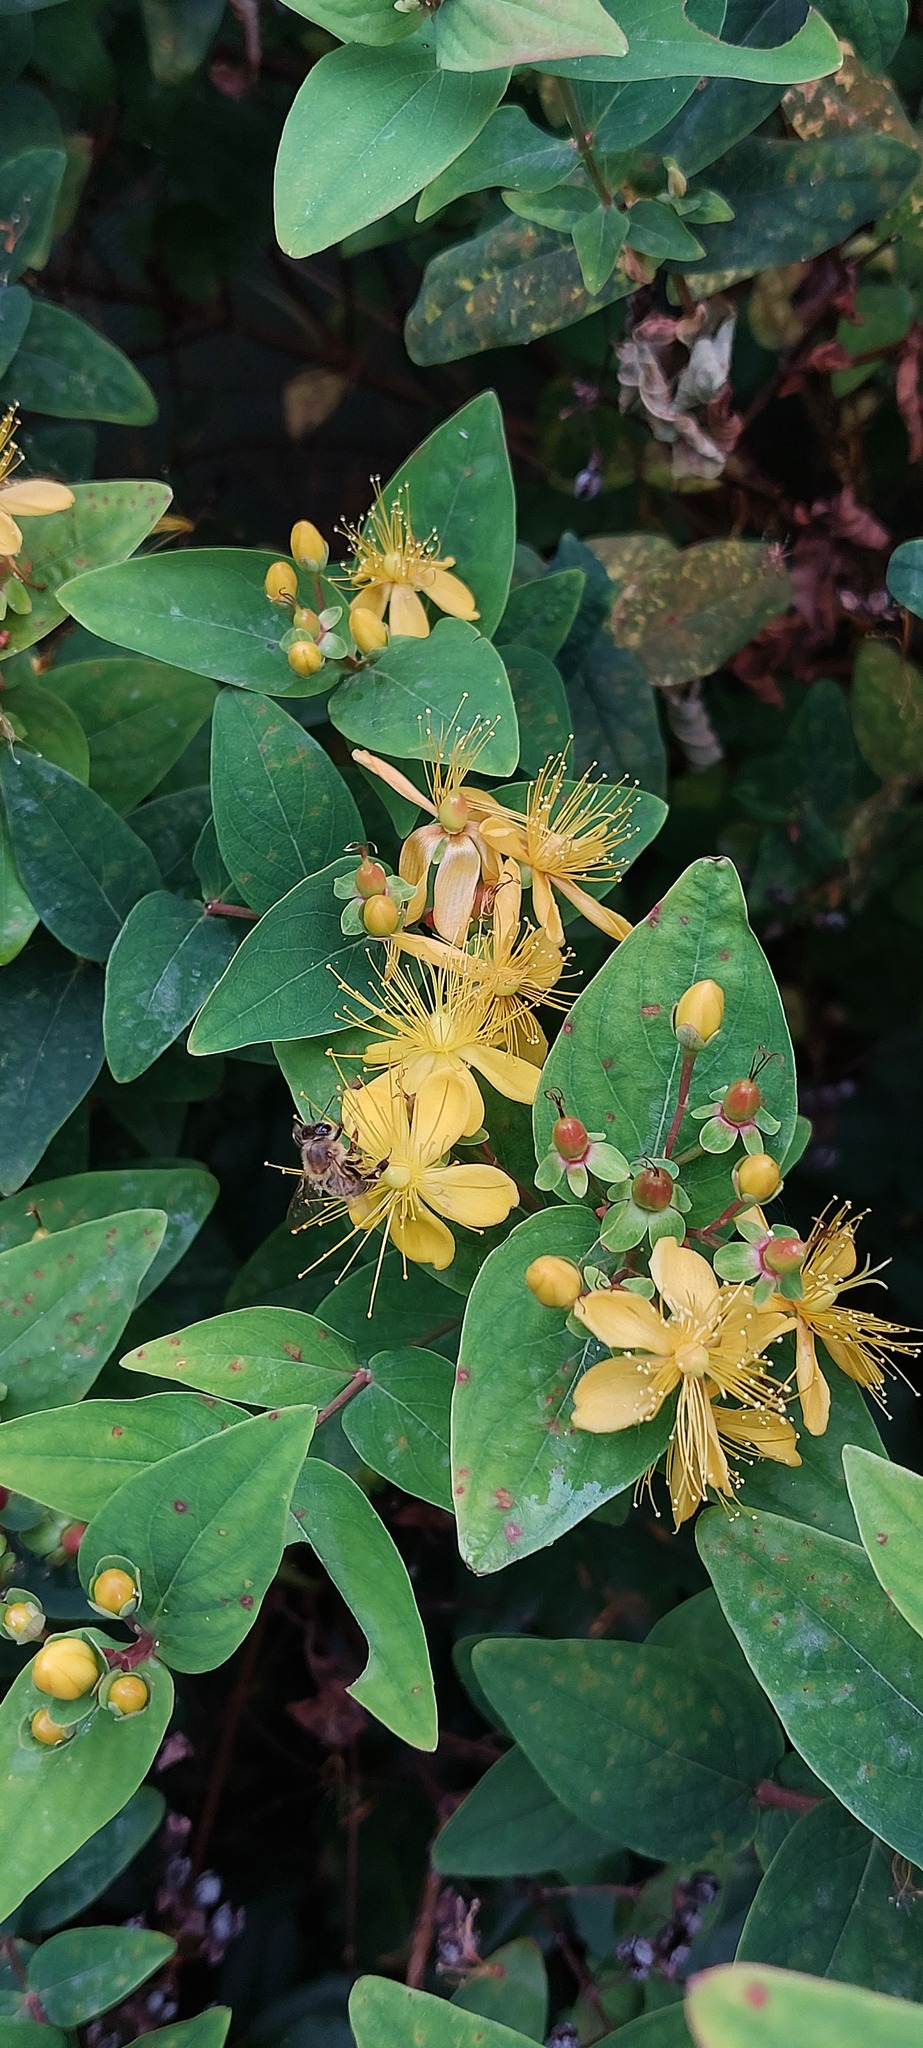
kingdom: Animalia
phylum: Arthropoda
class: Insecta
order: Hymenoptera
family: Apidae
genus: Apis
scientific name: Apis mellifera
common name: Honey bee
